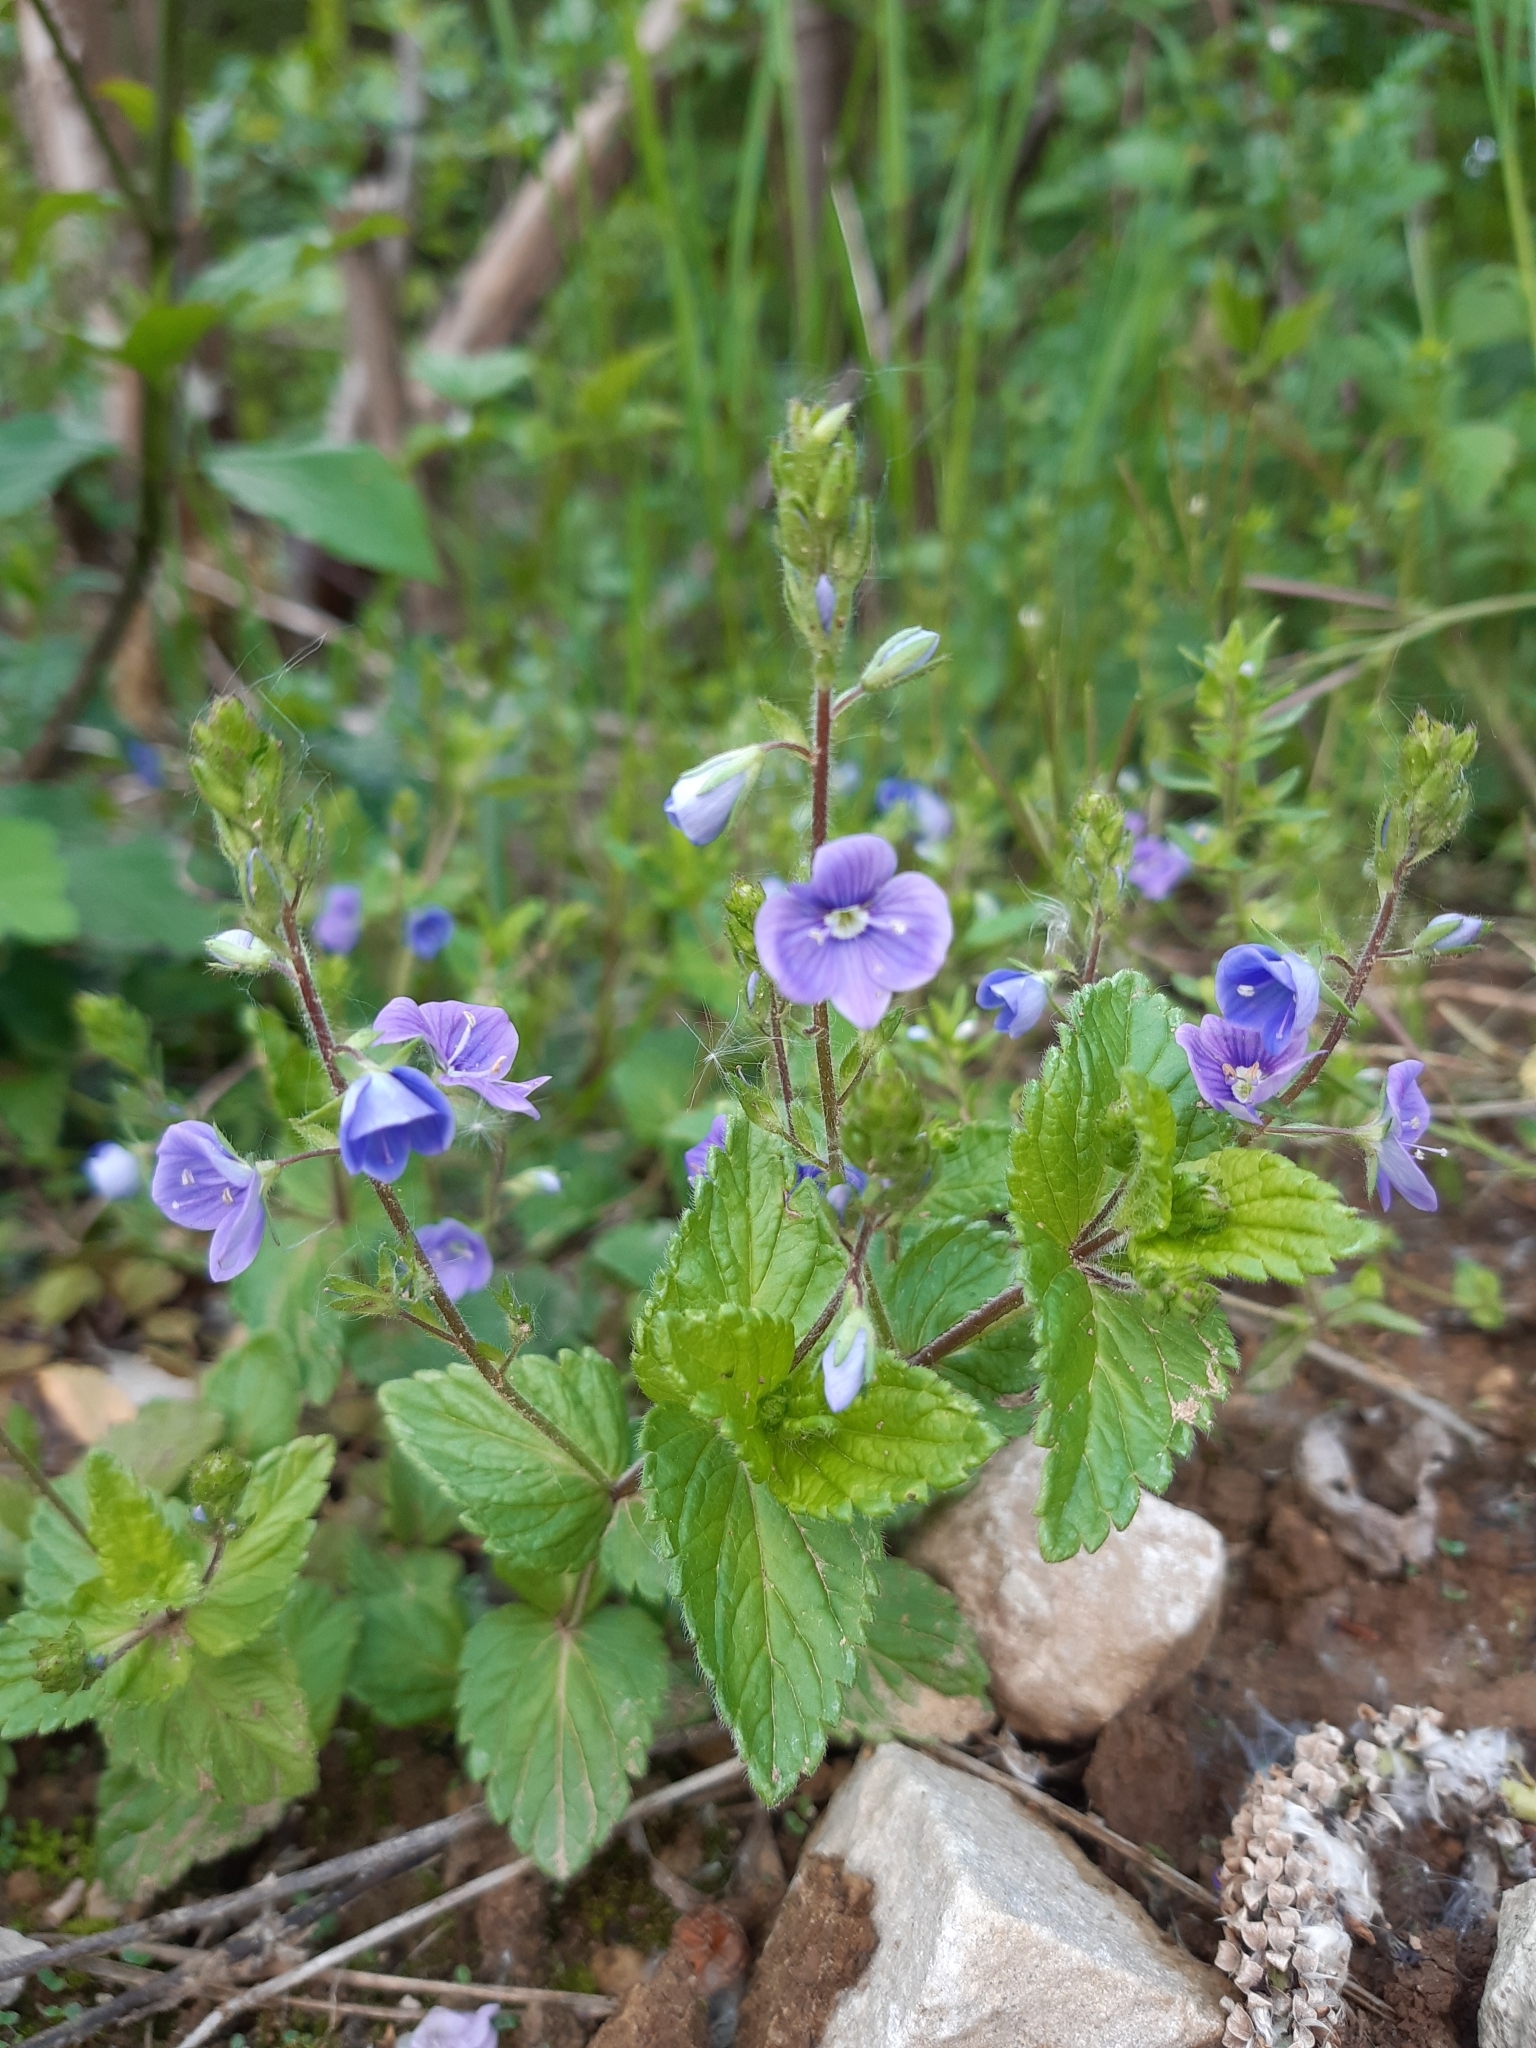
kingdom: Plantae
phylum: Tracheophyta
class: Magnoliopsida
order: Lamiales
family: Plantaginaceae
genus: Veronica
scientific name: Veronica chamaedrys
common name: Germander speedwell
